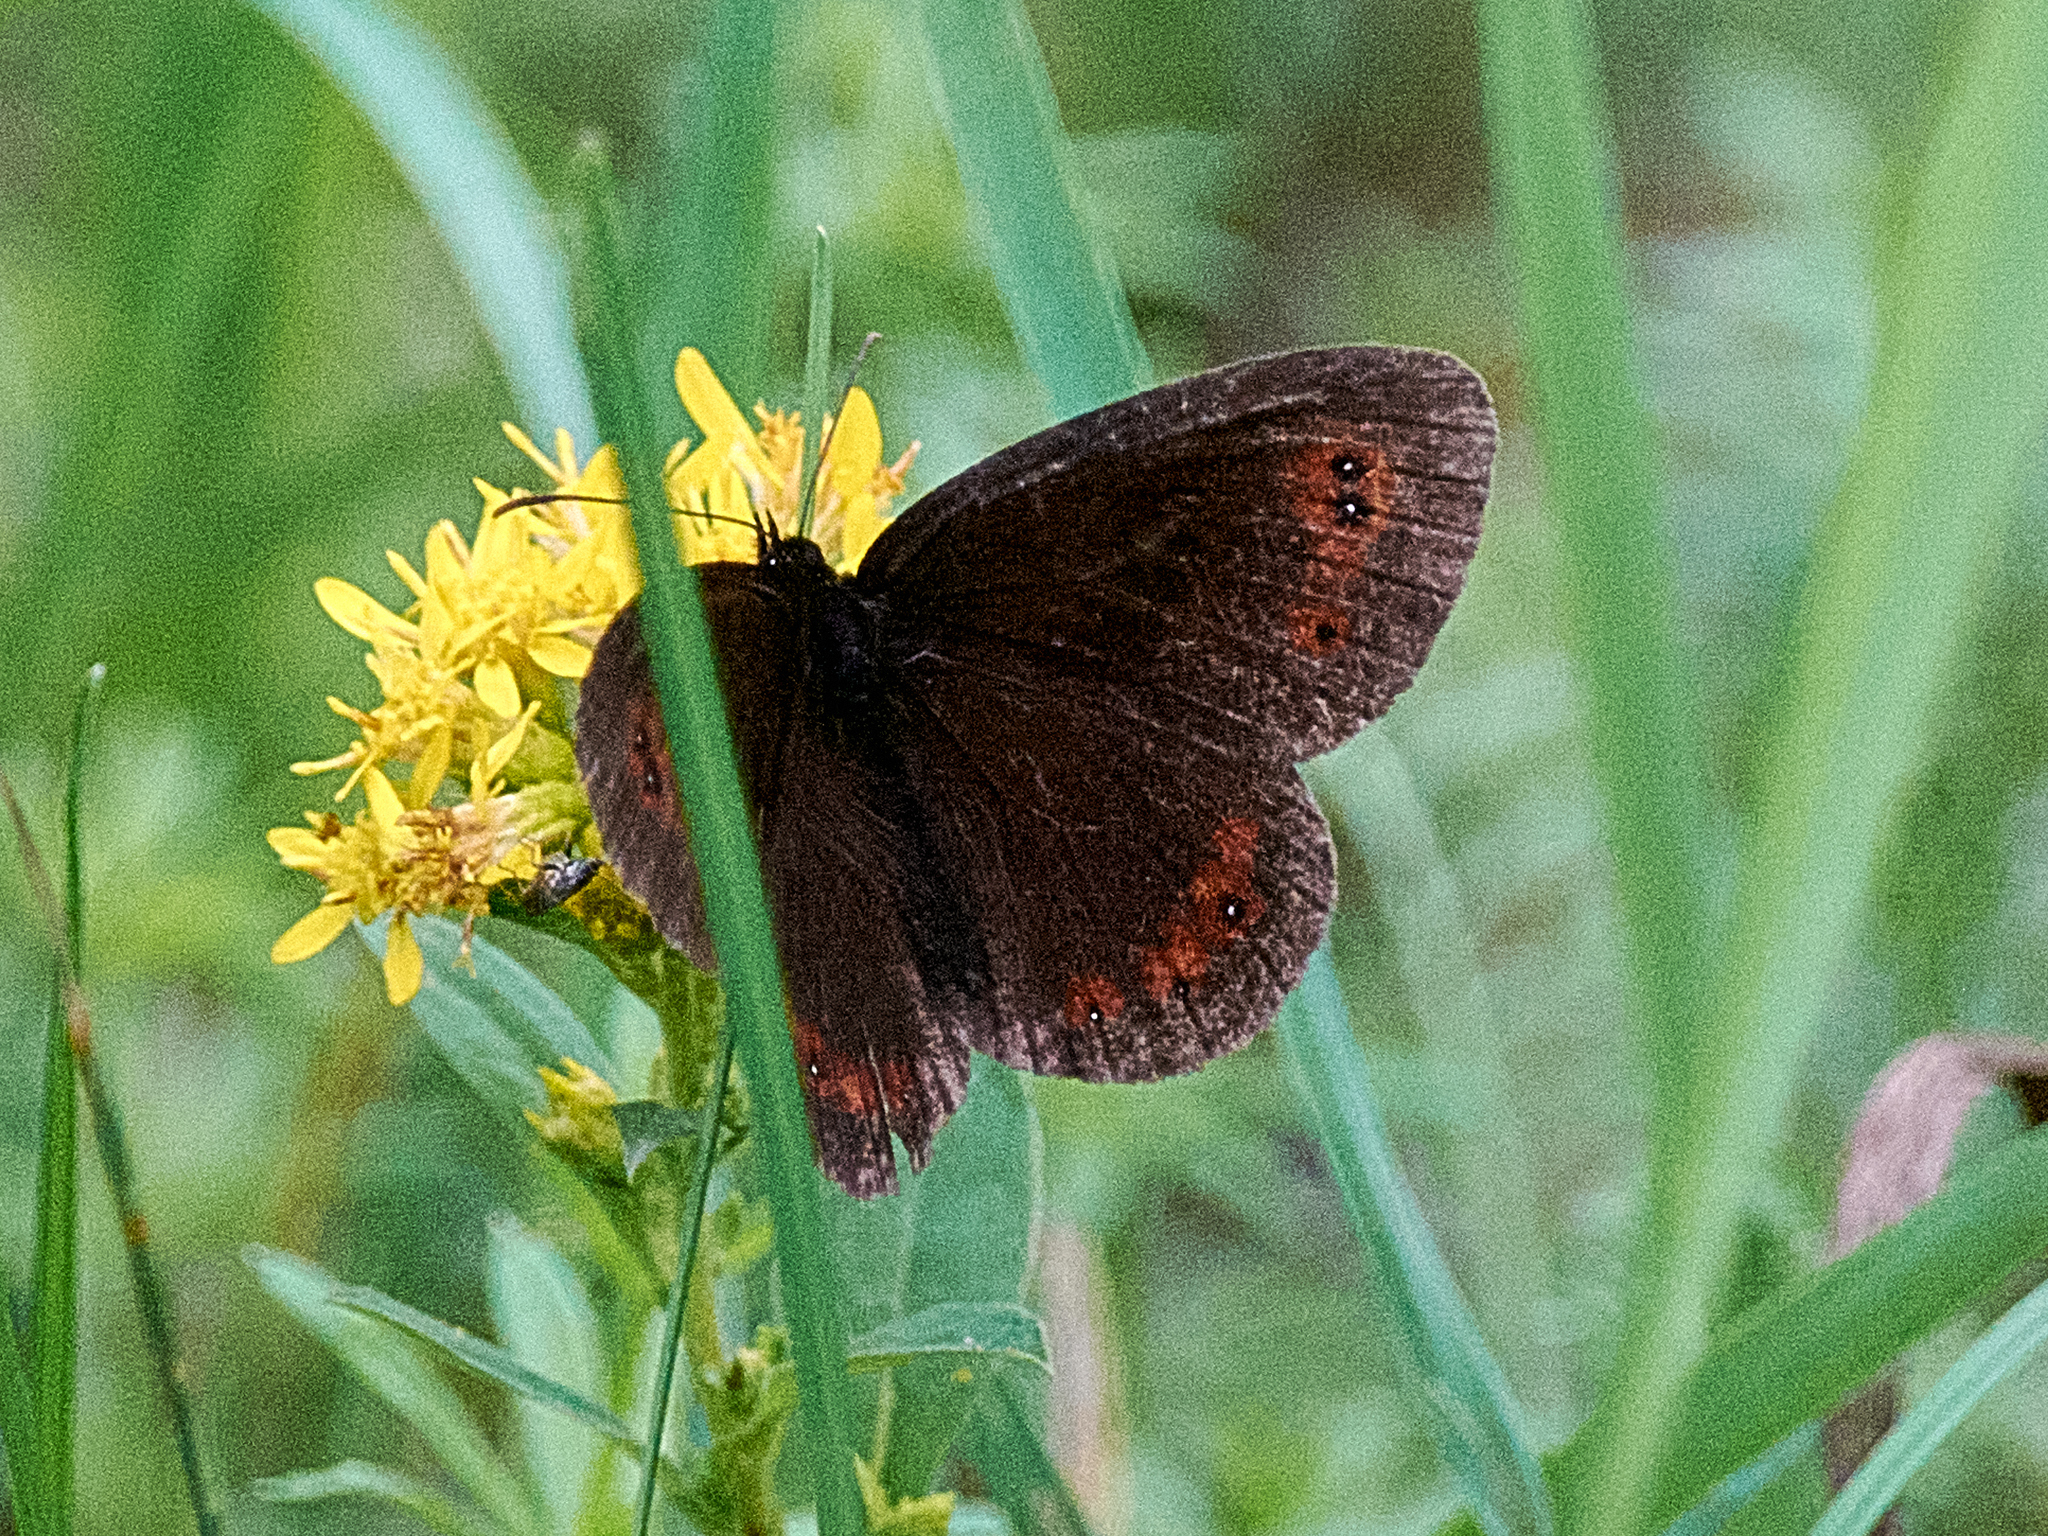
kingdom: Animalia
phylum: Arthropoda
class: Insecta
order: Lepidoptera
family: Nymphalidae
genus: Erebia
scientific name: Erebia aethiops
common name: Scotch argus
